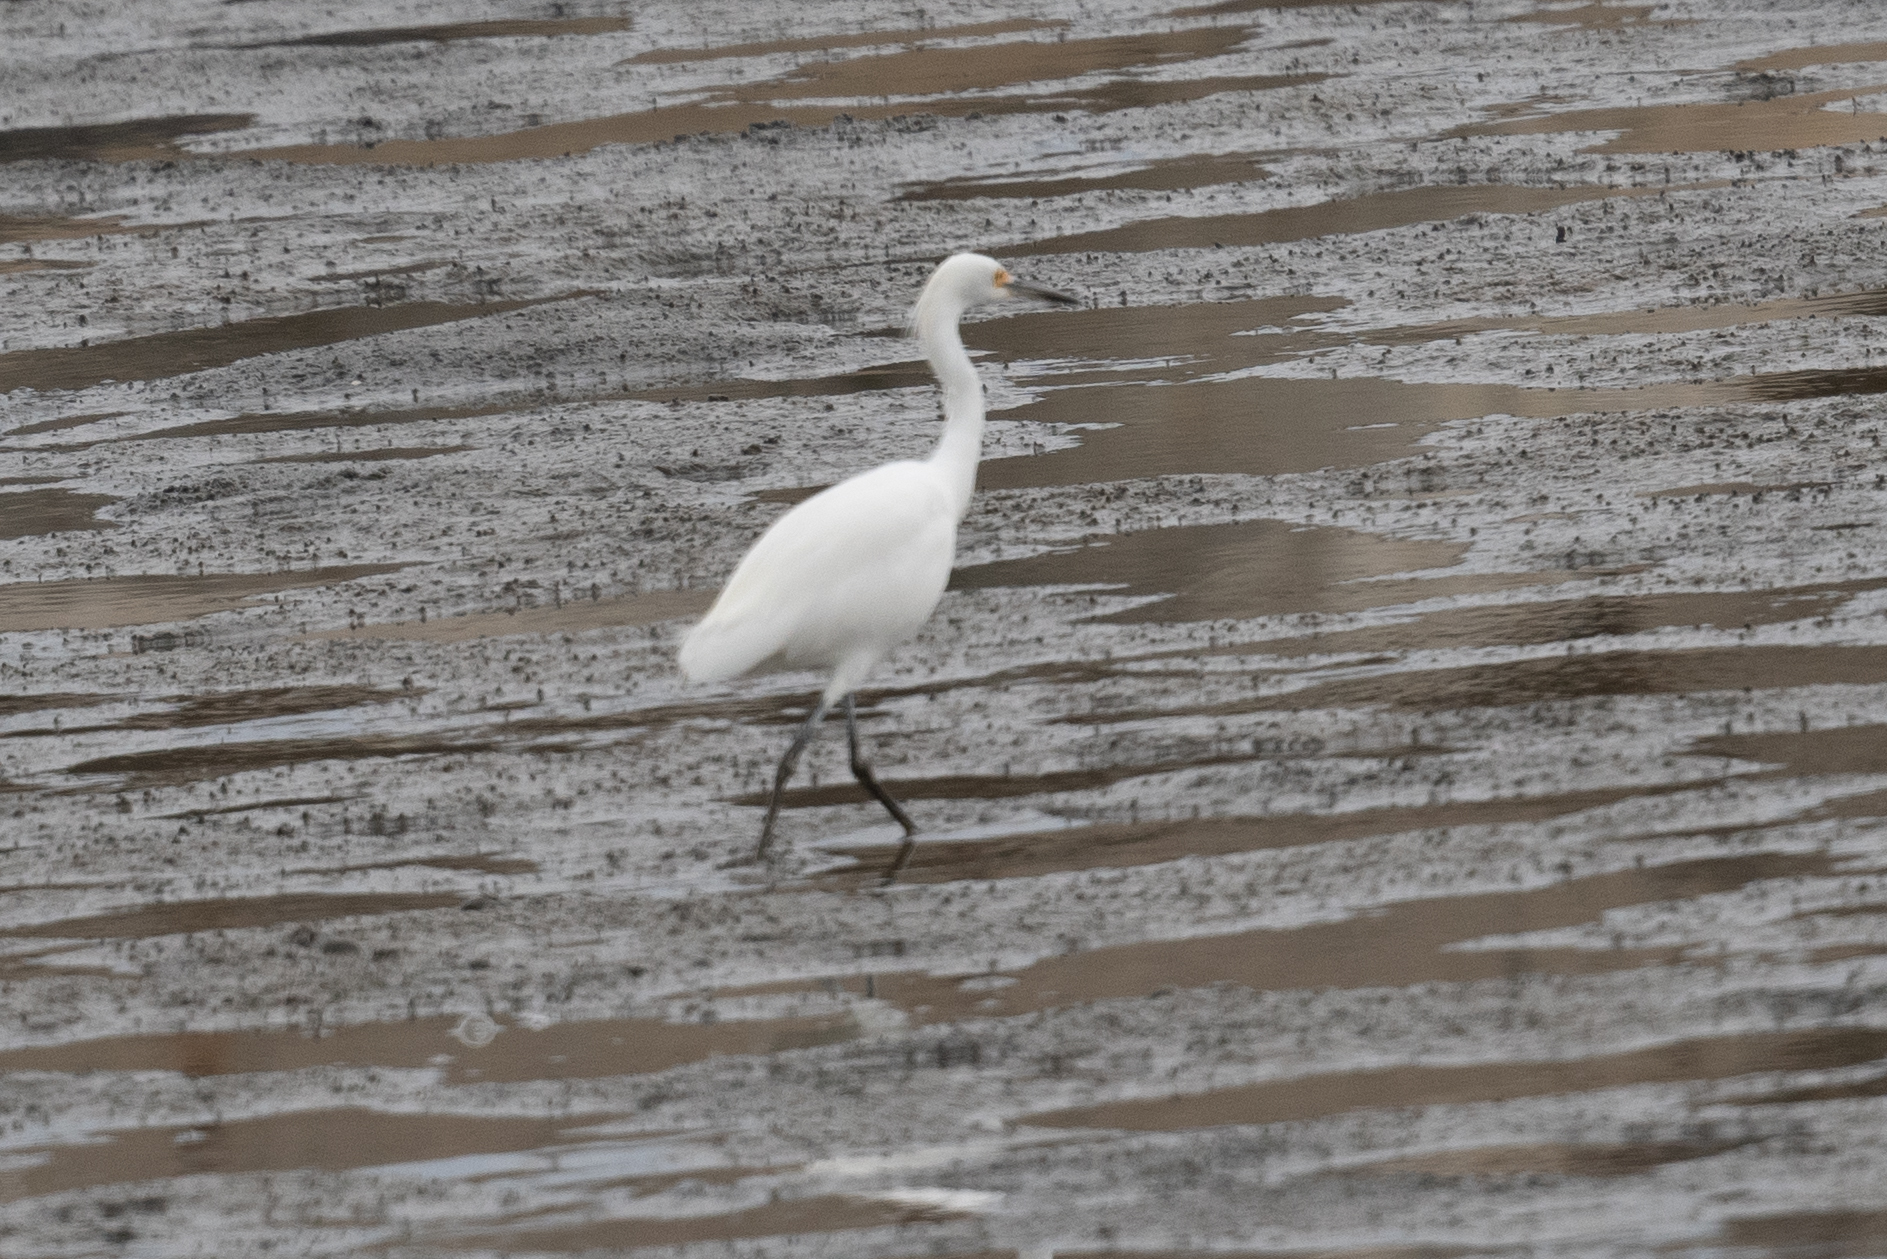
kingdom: Animalia
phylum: Chordata
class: Aves
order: Pelecaniformes
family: Ardeidae
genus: Egretta
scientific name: Egretta thula
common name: Snowy egret
